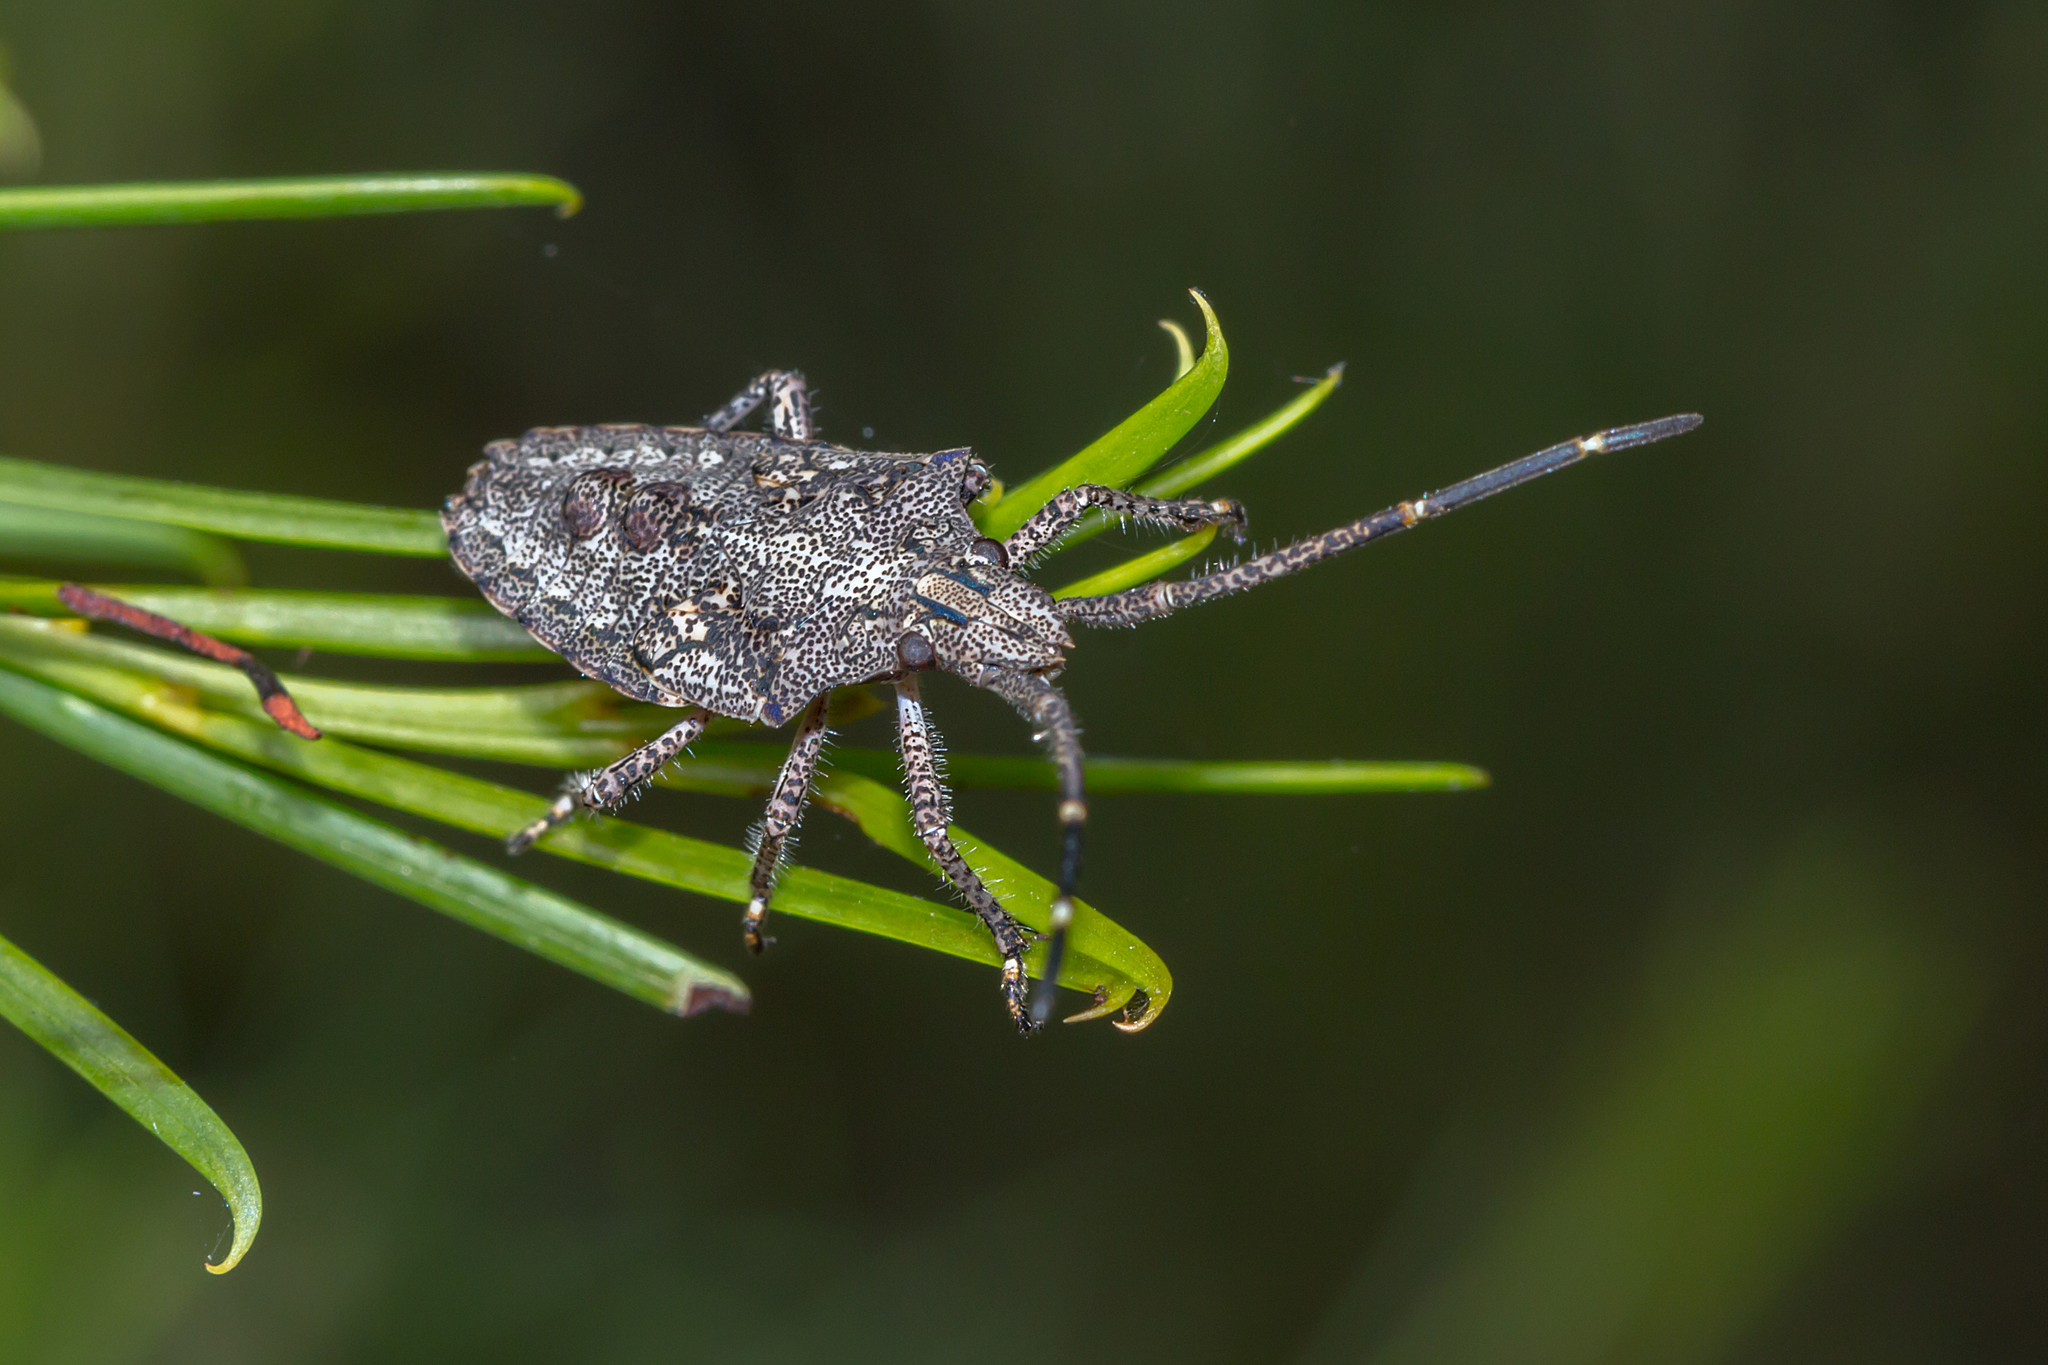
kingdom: Animalia
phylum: Arthropoda
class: Insecta
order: Hemiptera
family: Pentatomidae
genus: Alcaeus
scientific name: Alcaeus
